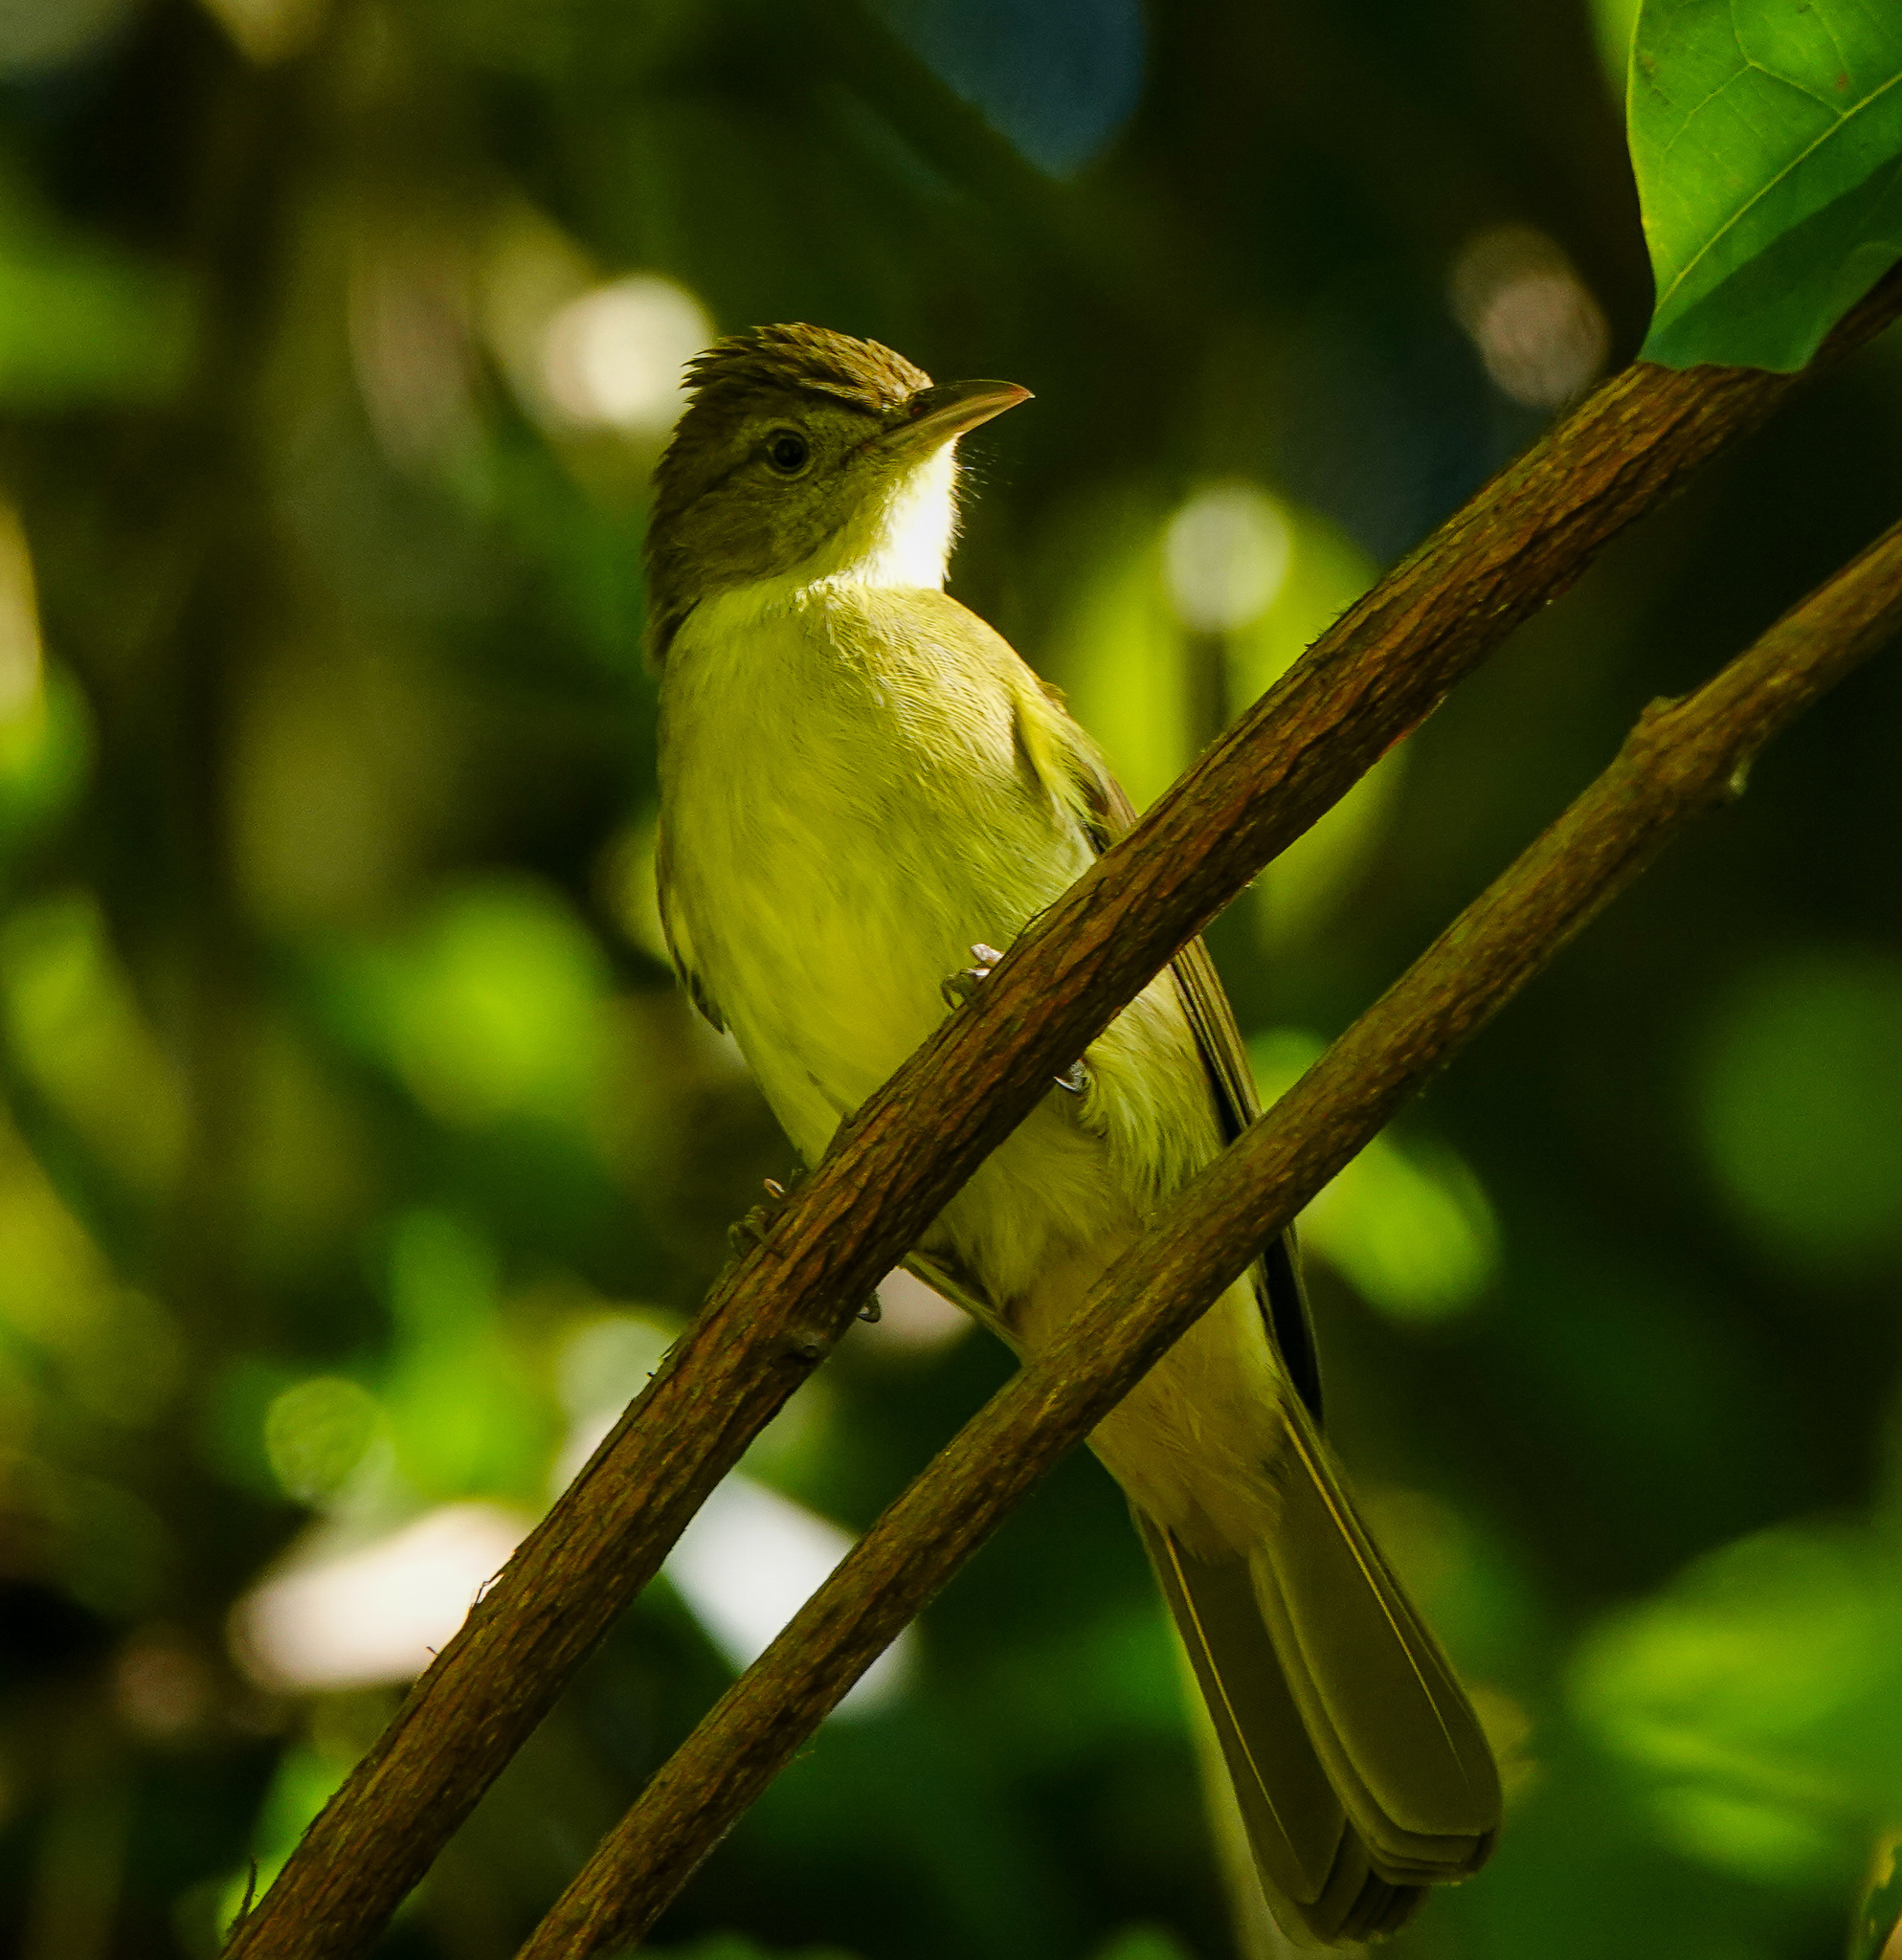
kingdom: Animalia
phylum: Chordata
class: Aves
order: Passeriformes
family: Pycnonotidae
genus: Iole
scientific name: Iole virescens
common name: Olive bulbul
